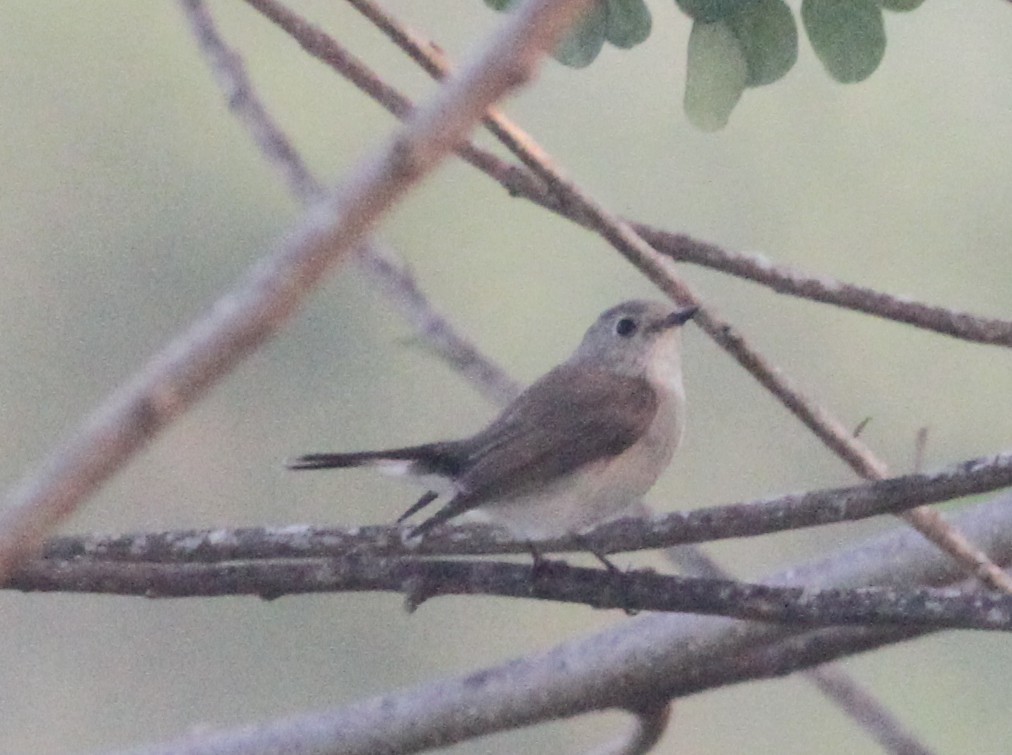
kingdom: Animalia
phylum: Chordata
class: Aves
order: Passeriformes
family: Muscicapidae
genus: Ficedula
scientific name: Ficedula albicilla
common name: Taiga flycatcher
